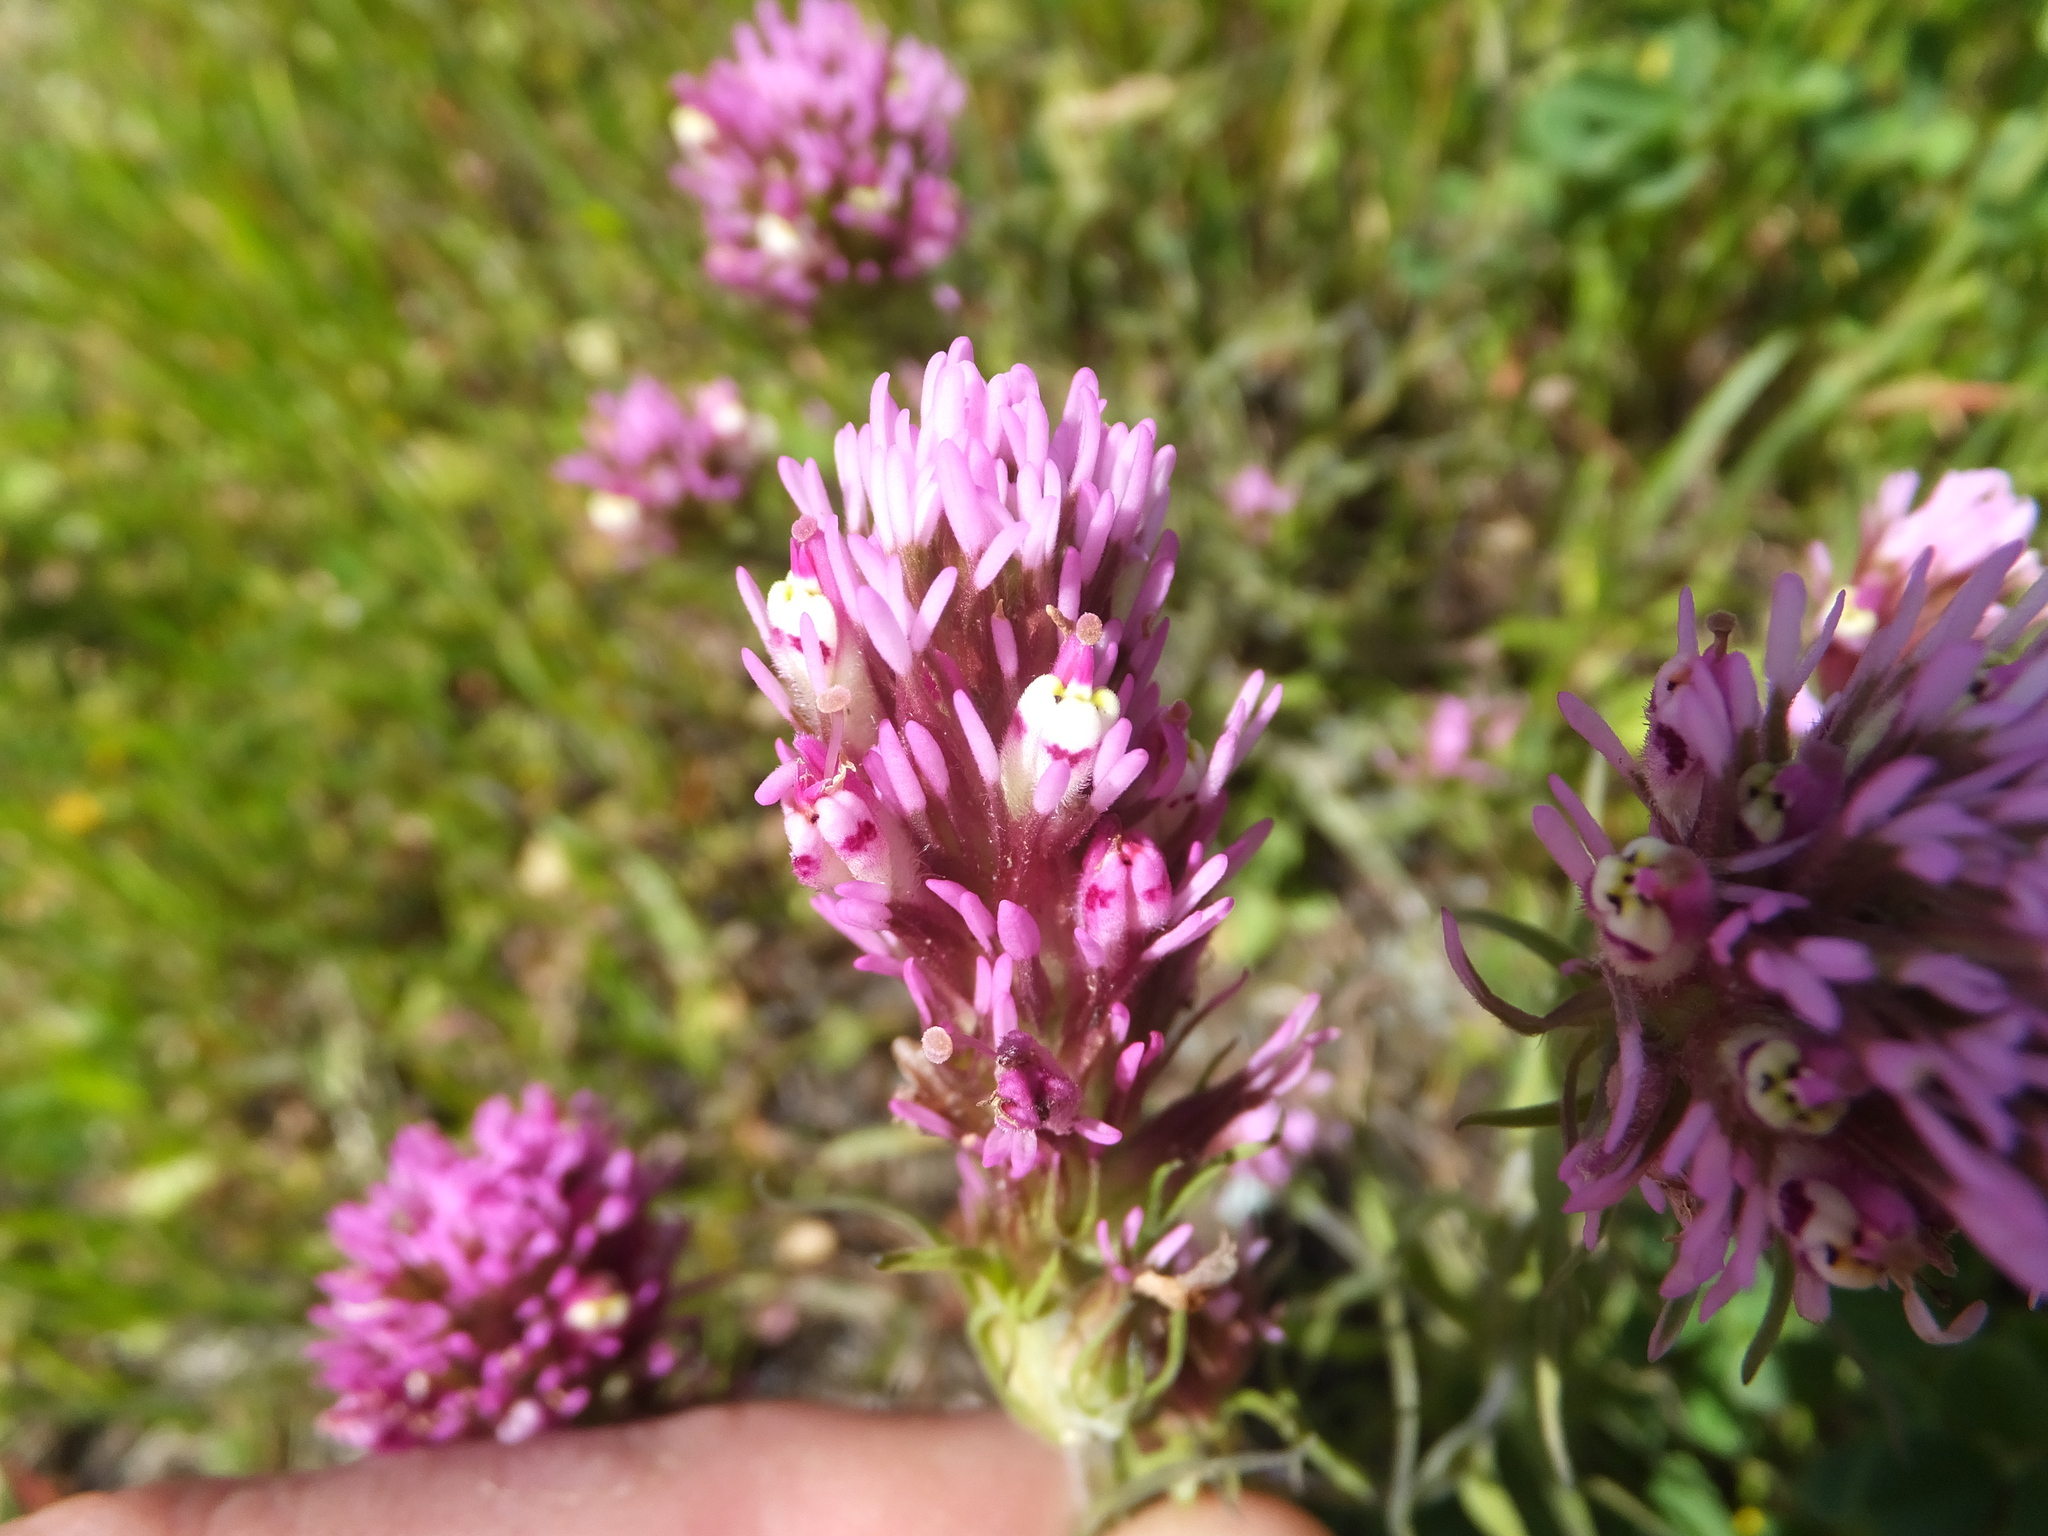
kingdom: Plantae
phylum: Tracheophyta
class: Magnoliopsida
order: Lamiales
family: Orobanchaceae
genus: Castilleja
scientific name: Castilleja densiflora
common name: Dense-flower indian paintbrush
